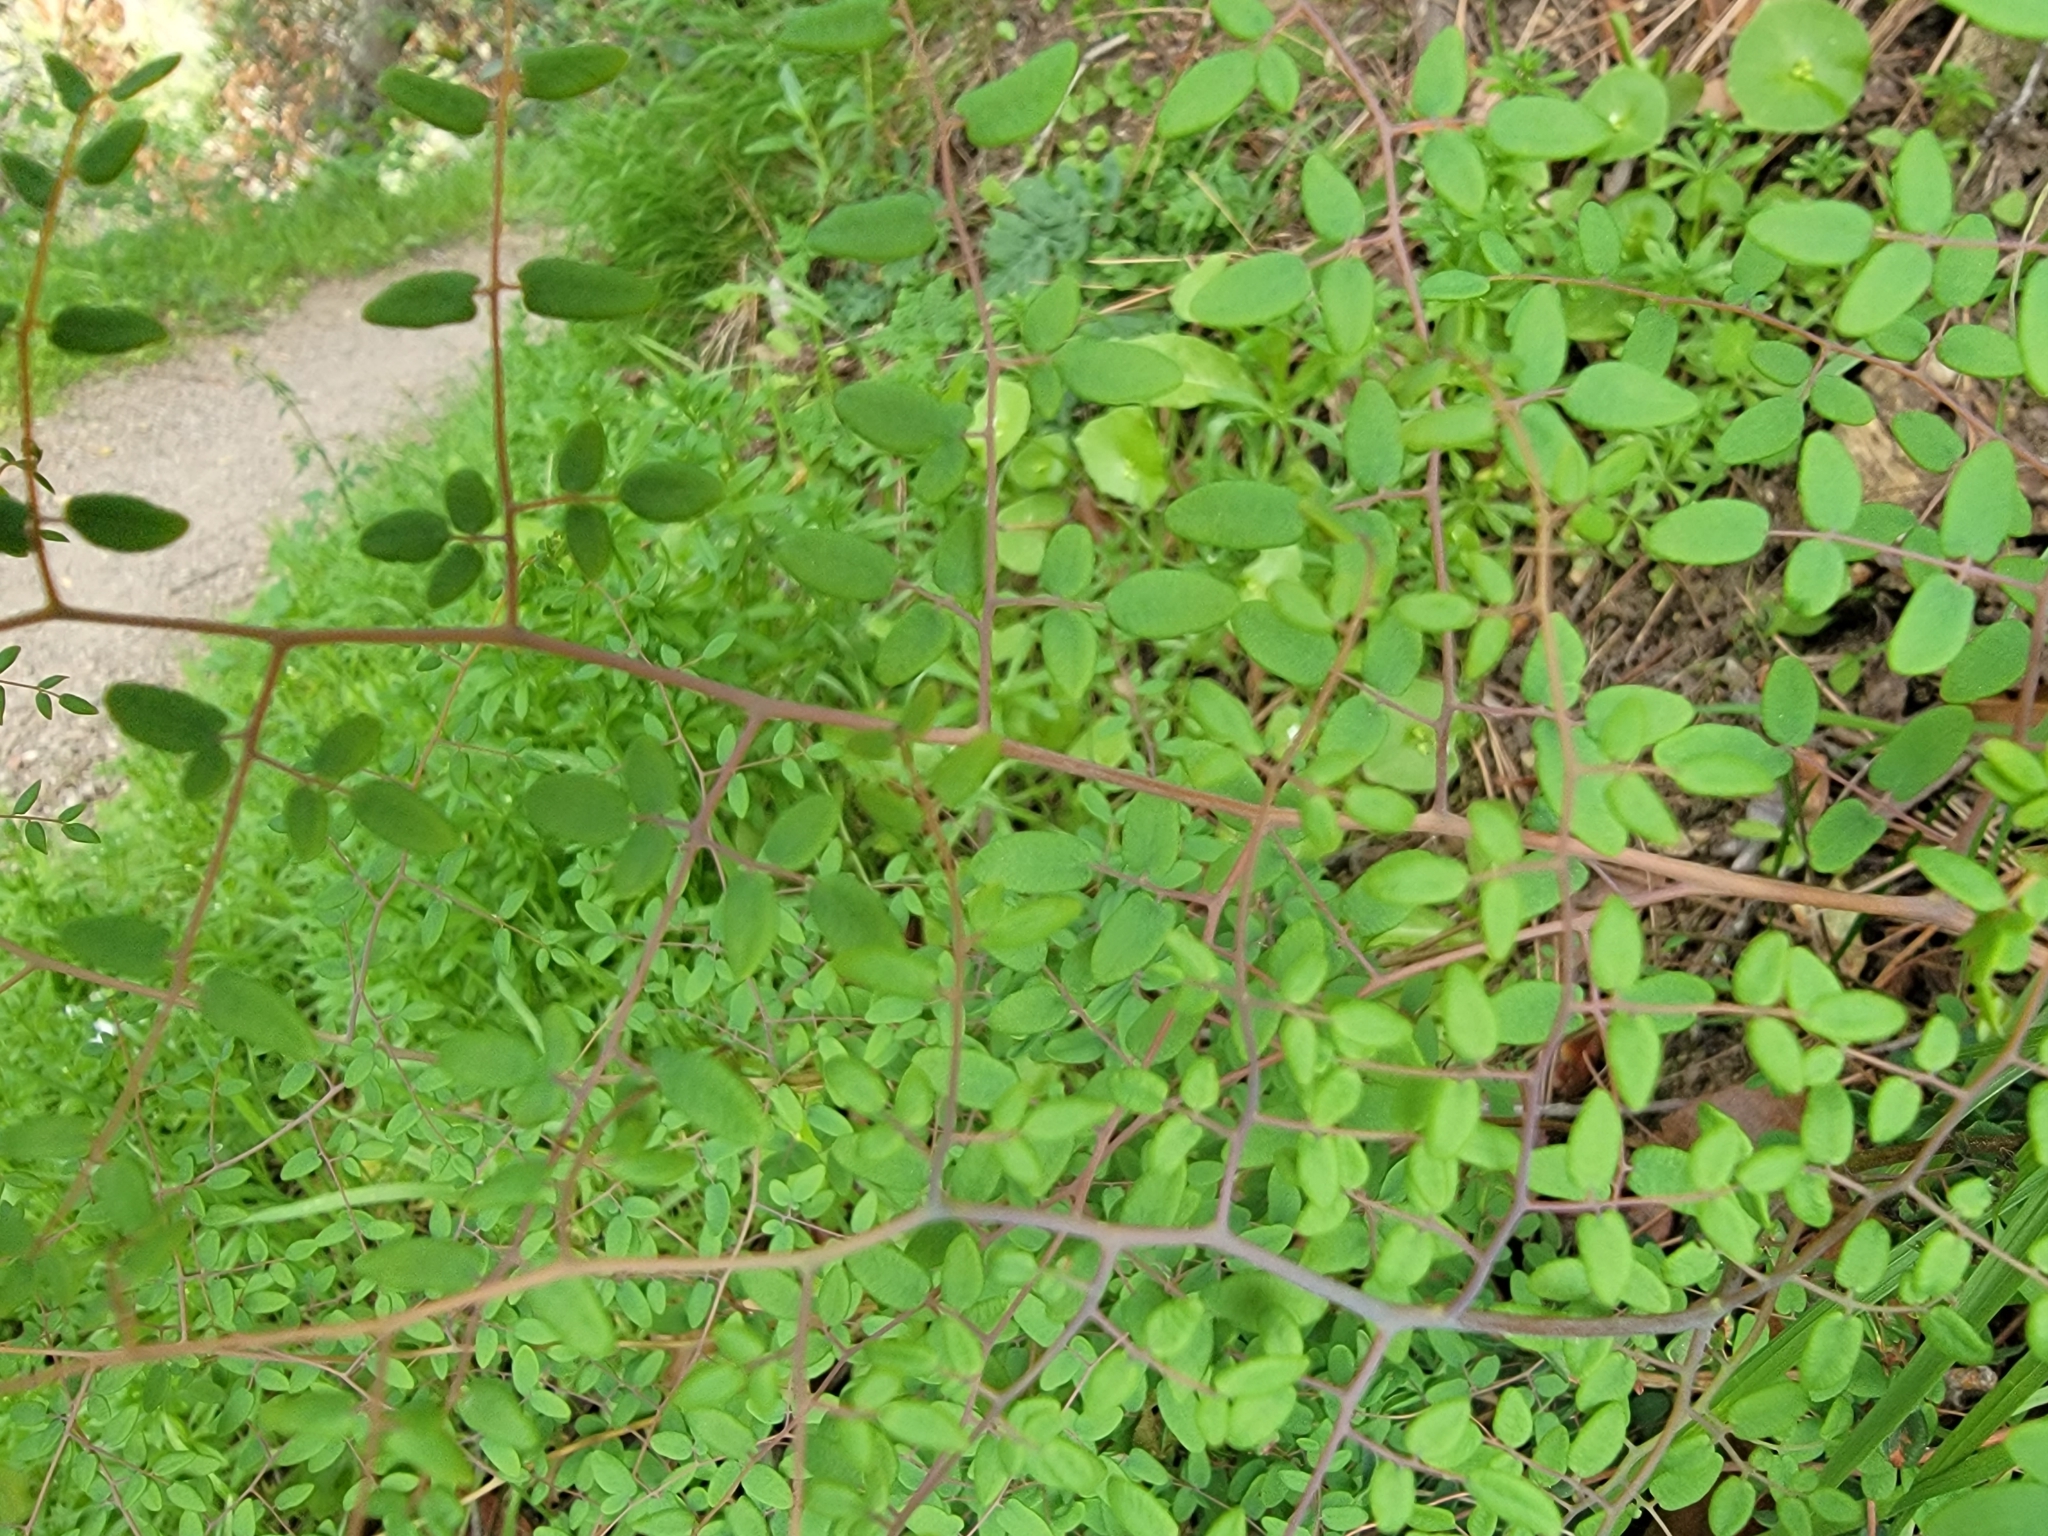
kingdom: Plantae
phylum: Tracheophyta
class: Polypodiopsida
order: Polypodiales
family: Pteridaceae
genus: Pellaea
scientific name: Pellaea andromedifolia
